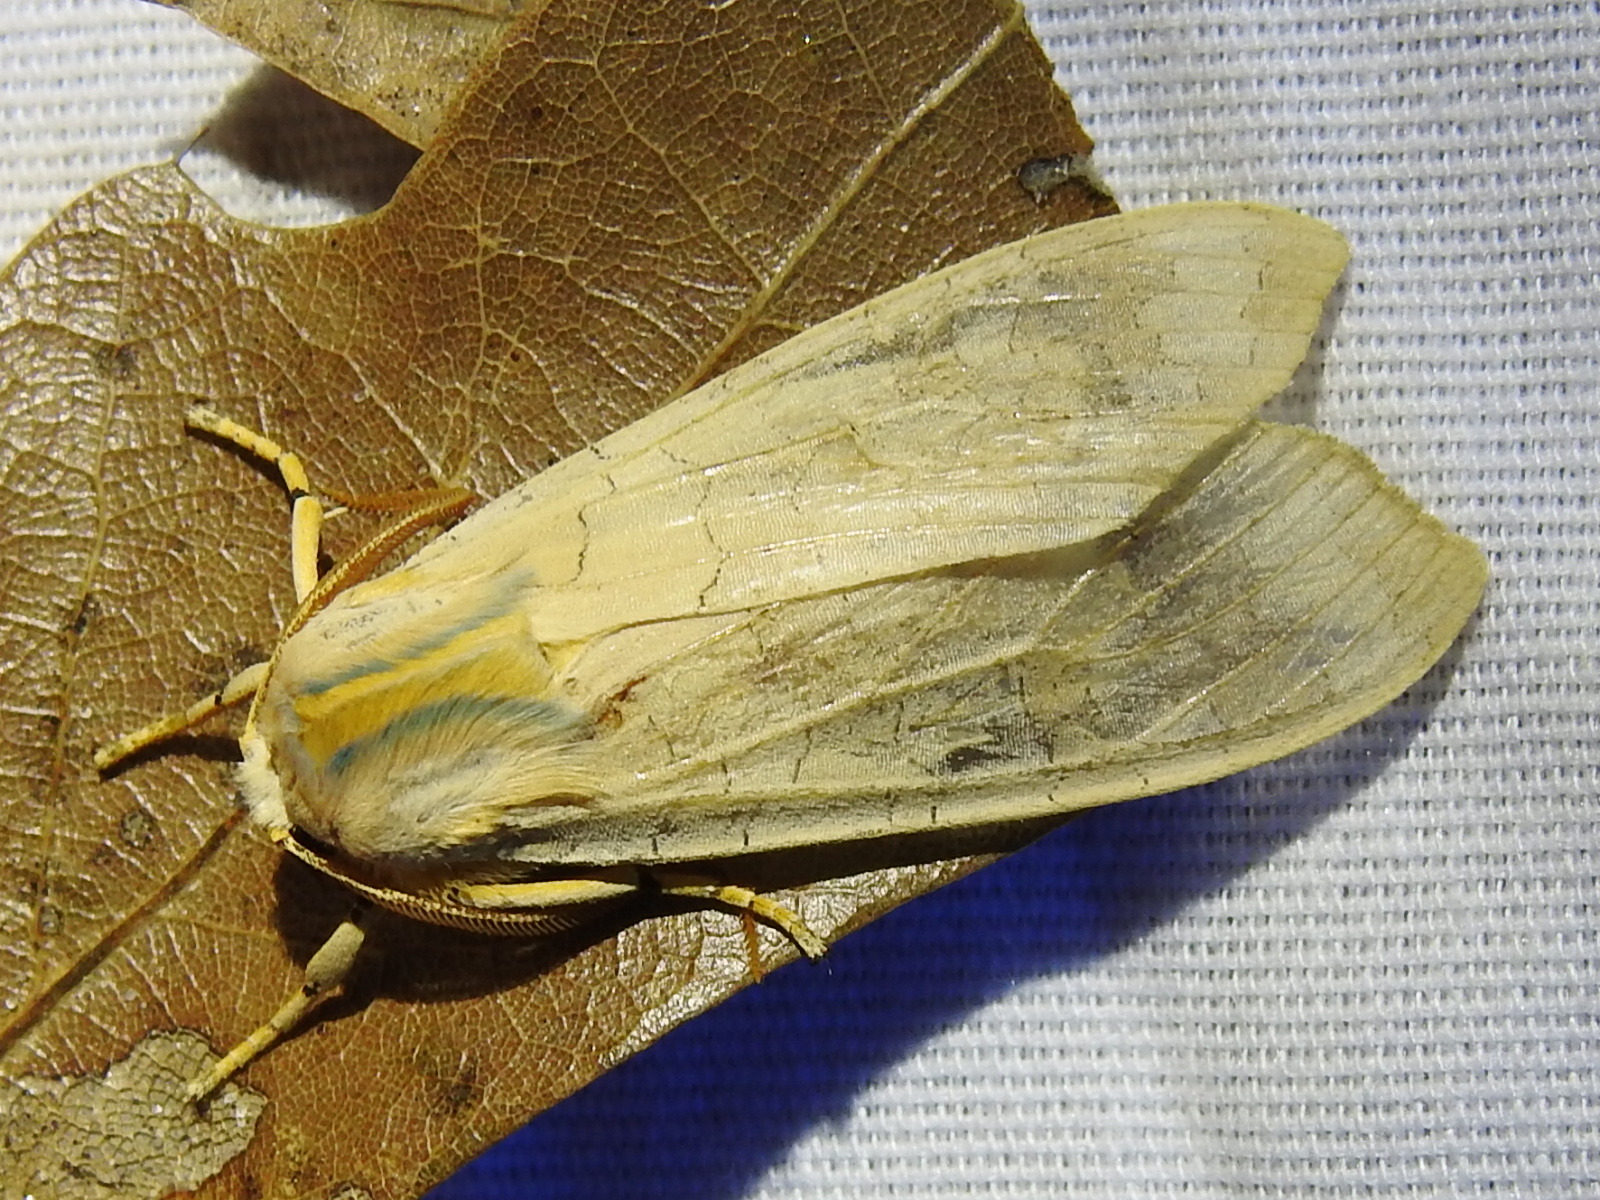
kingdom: Animalia
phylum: Arthropoda
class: Insecta
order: Lepidoptera
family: Erebidae
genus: Halysidota
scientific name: Halysidota
